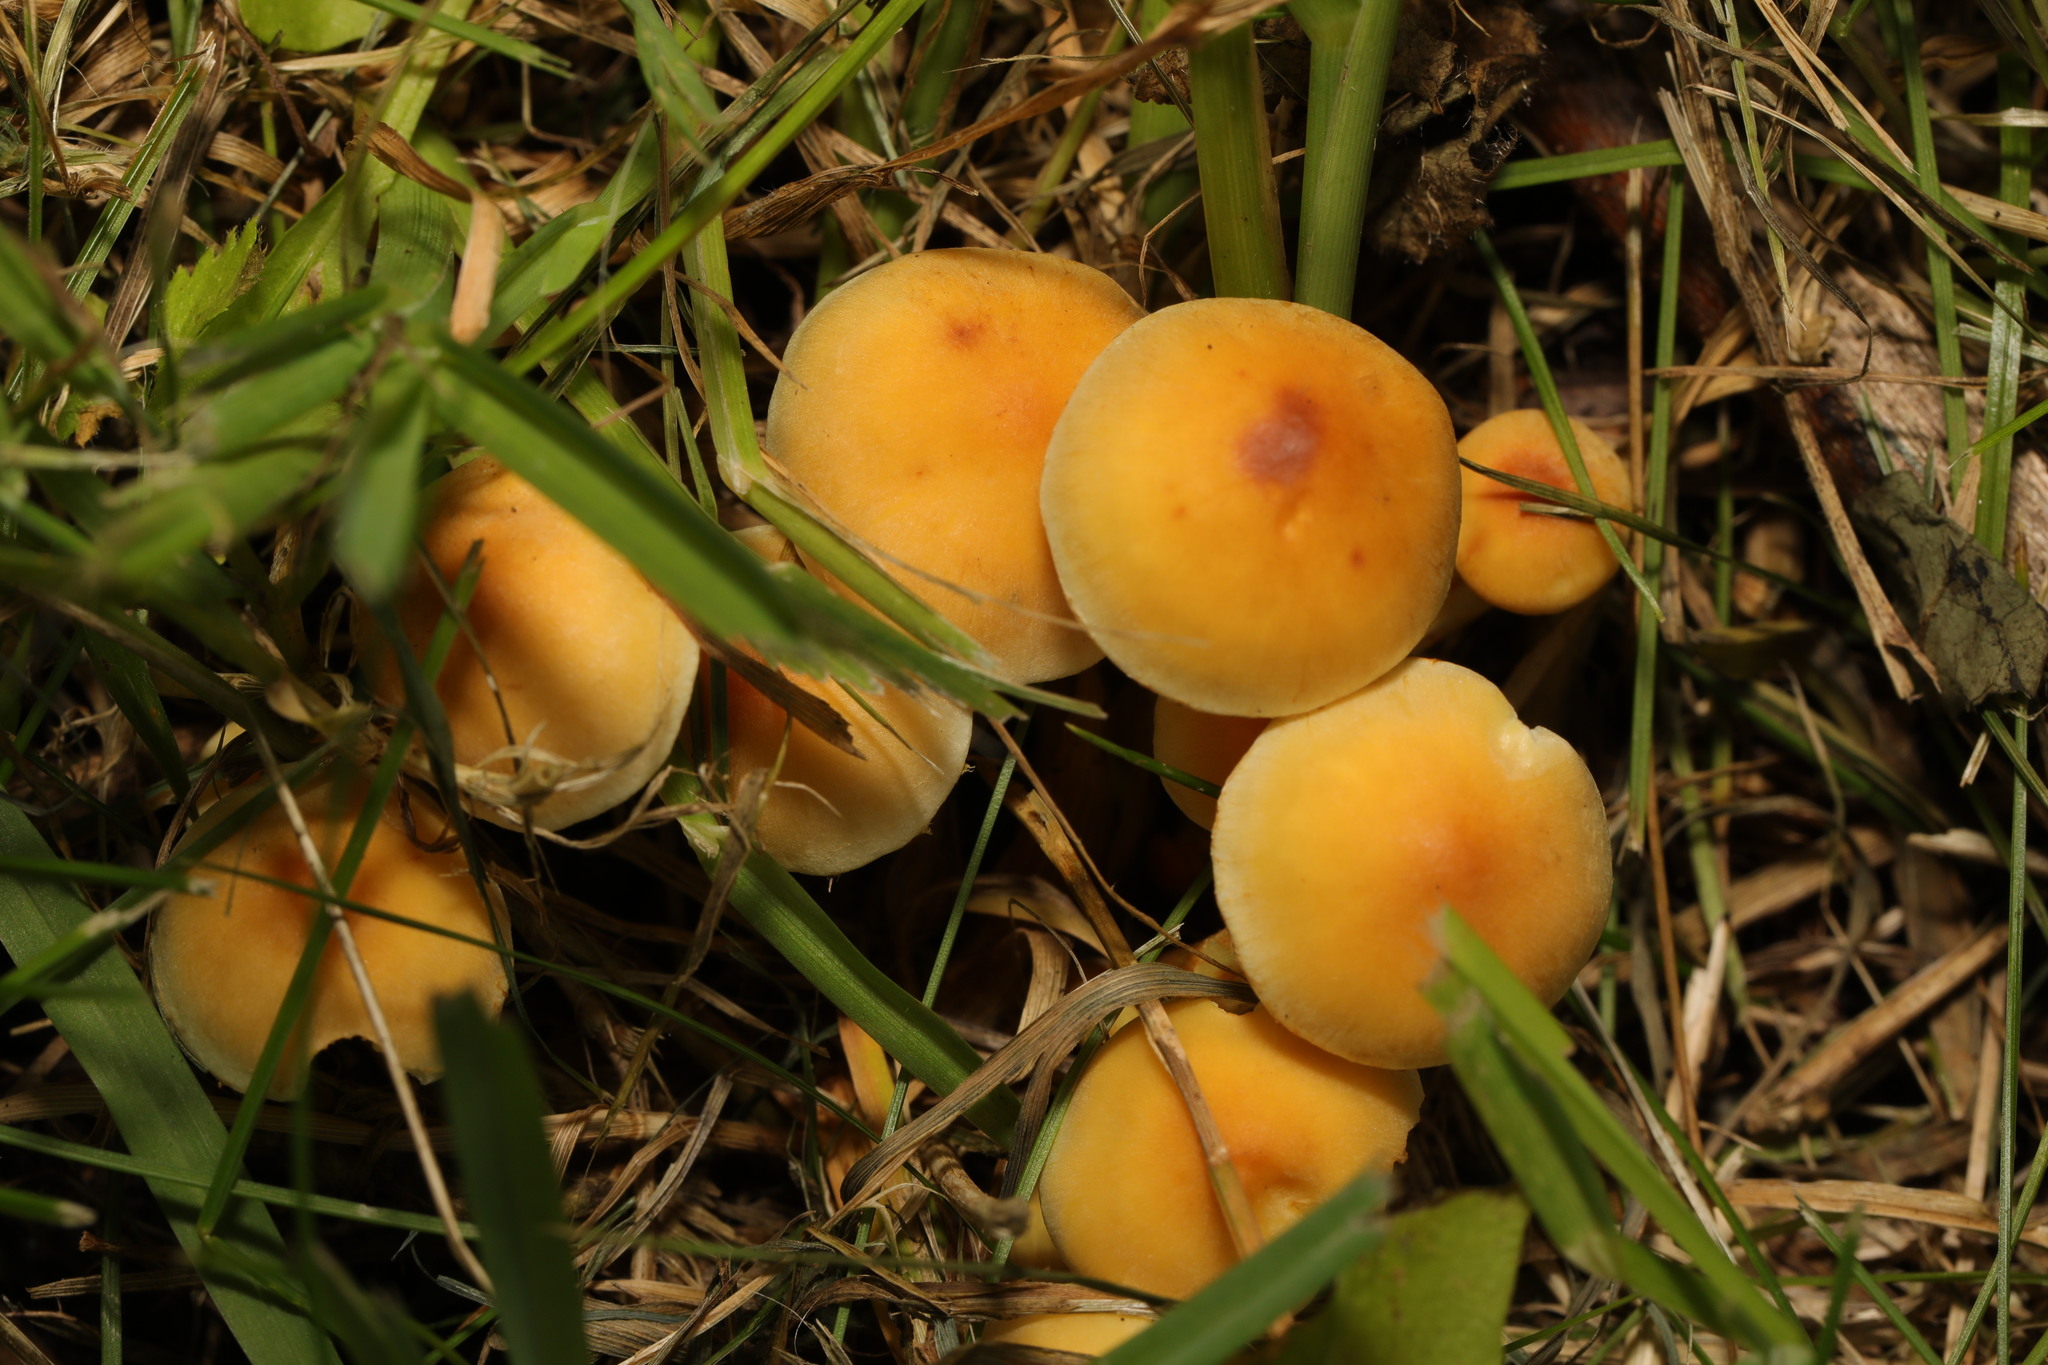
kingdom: Fungi
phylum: Basidiomycota
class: Agaricomycetes
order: Agaricales
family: Strophariaceae
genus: Hypholoma
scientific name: Hypholoma fasciculare
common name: Sulphur tuft
